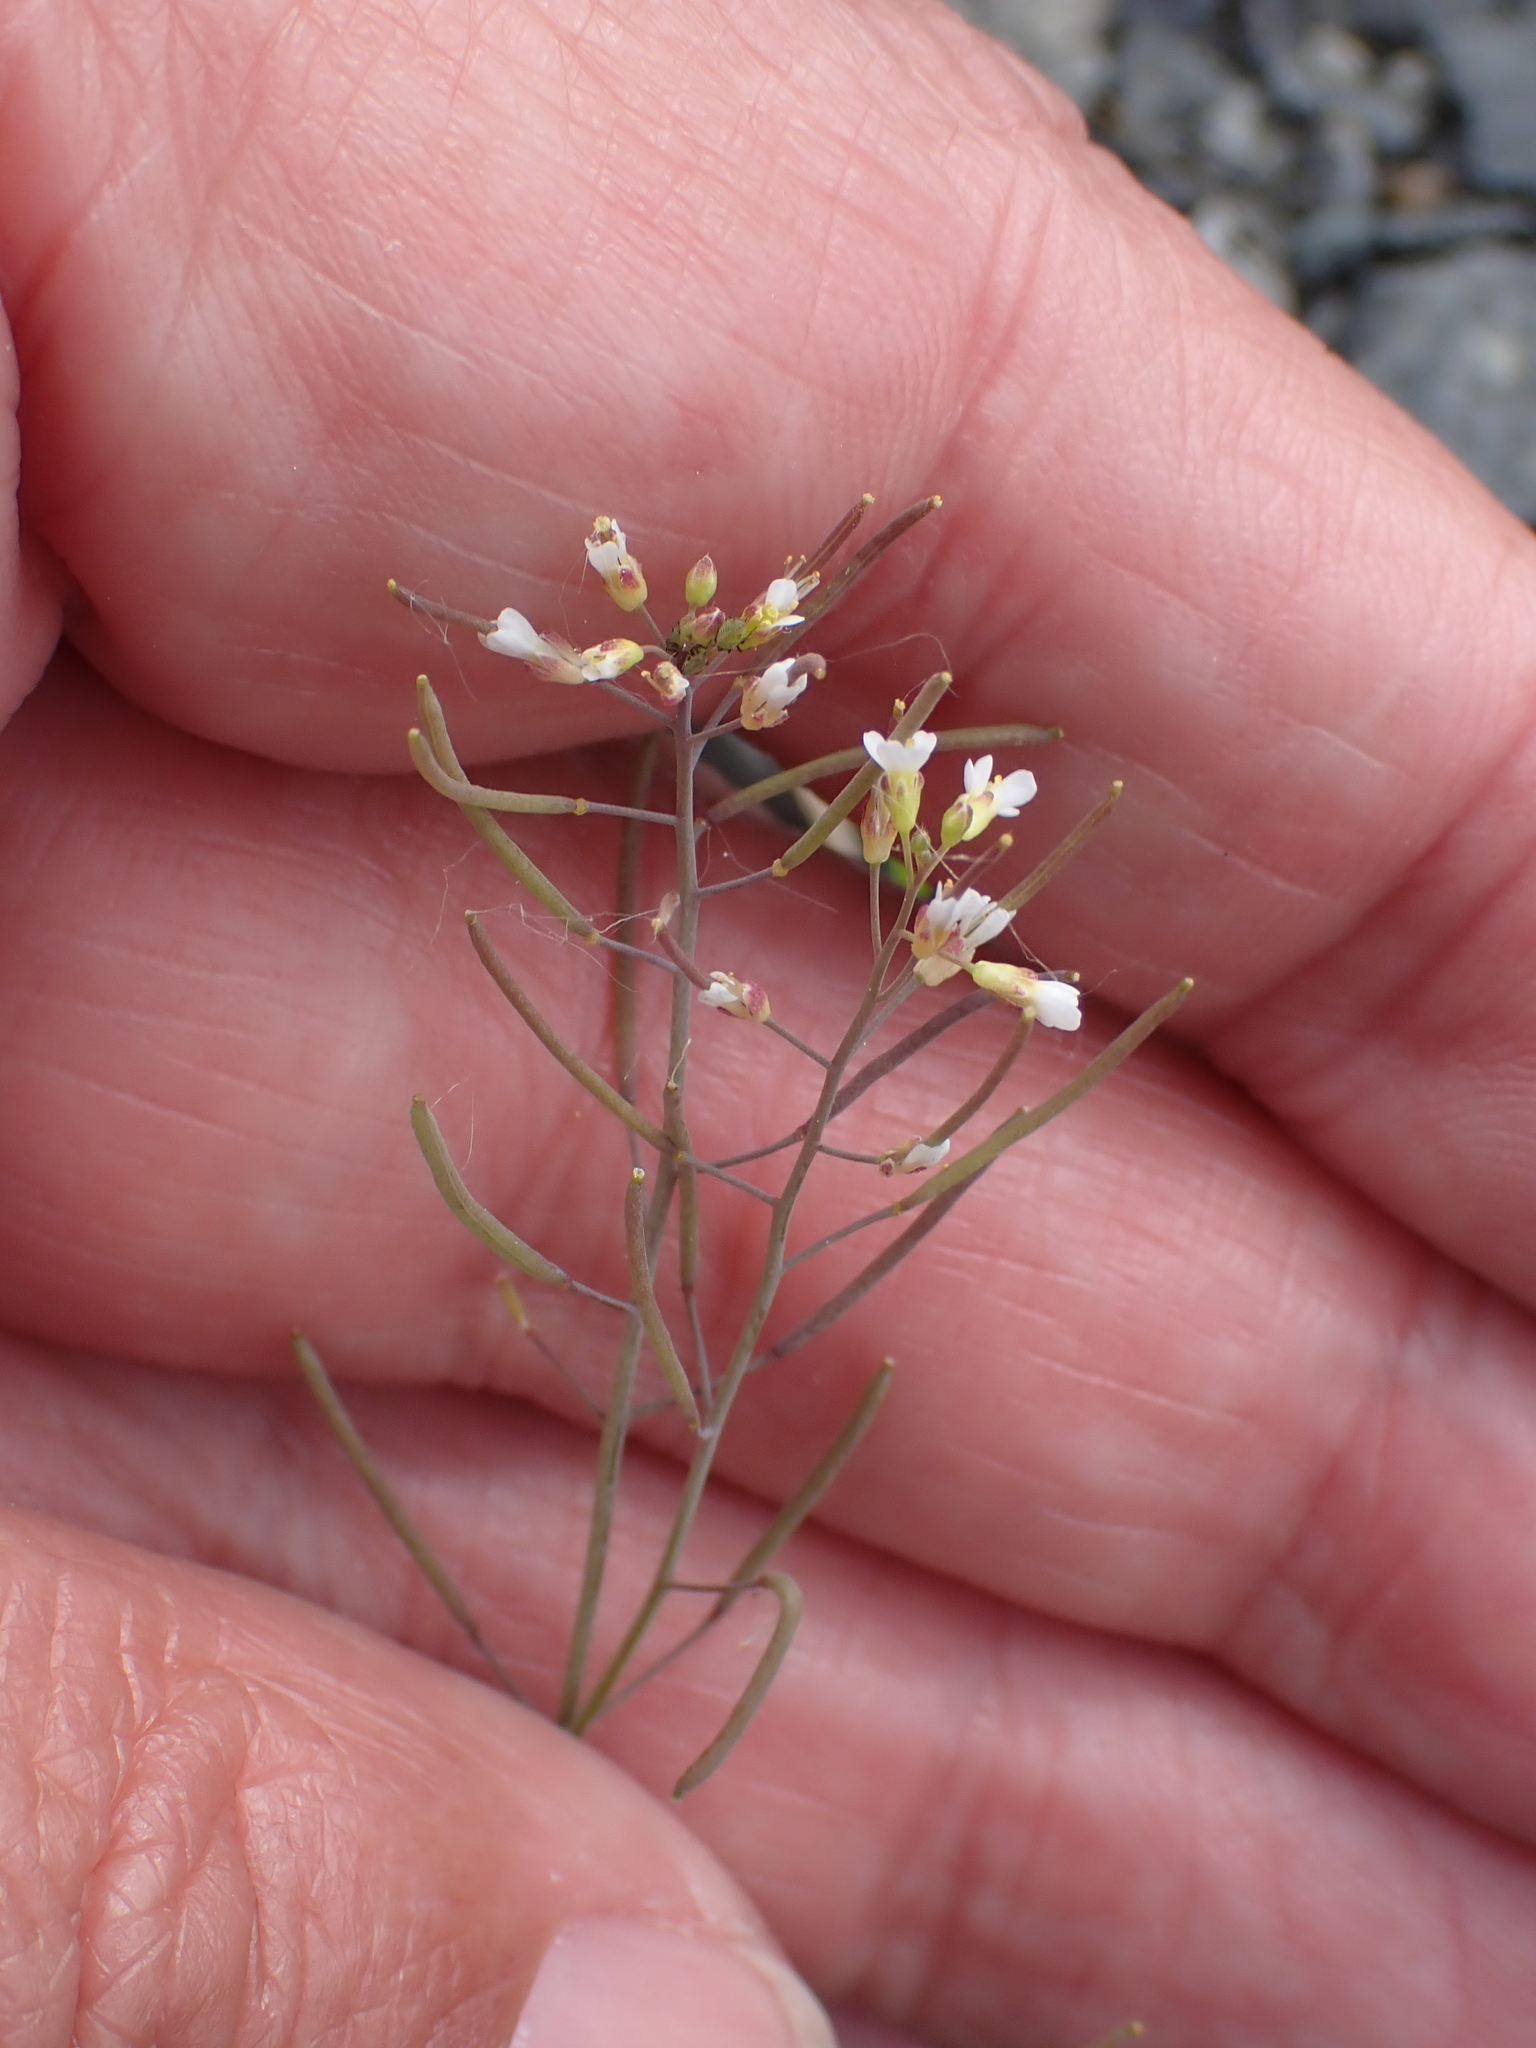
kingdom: Plantae
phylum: Tracheophyta
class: Magnoliopsida
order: Brassicales
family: Brassicaceae
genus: Arabidopsis
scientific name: Arabidopsis thaliana
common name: Thale cress
